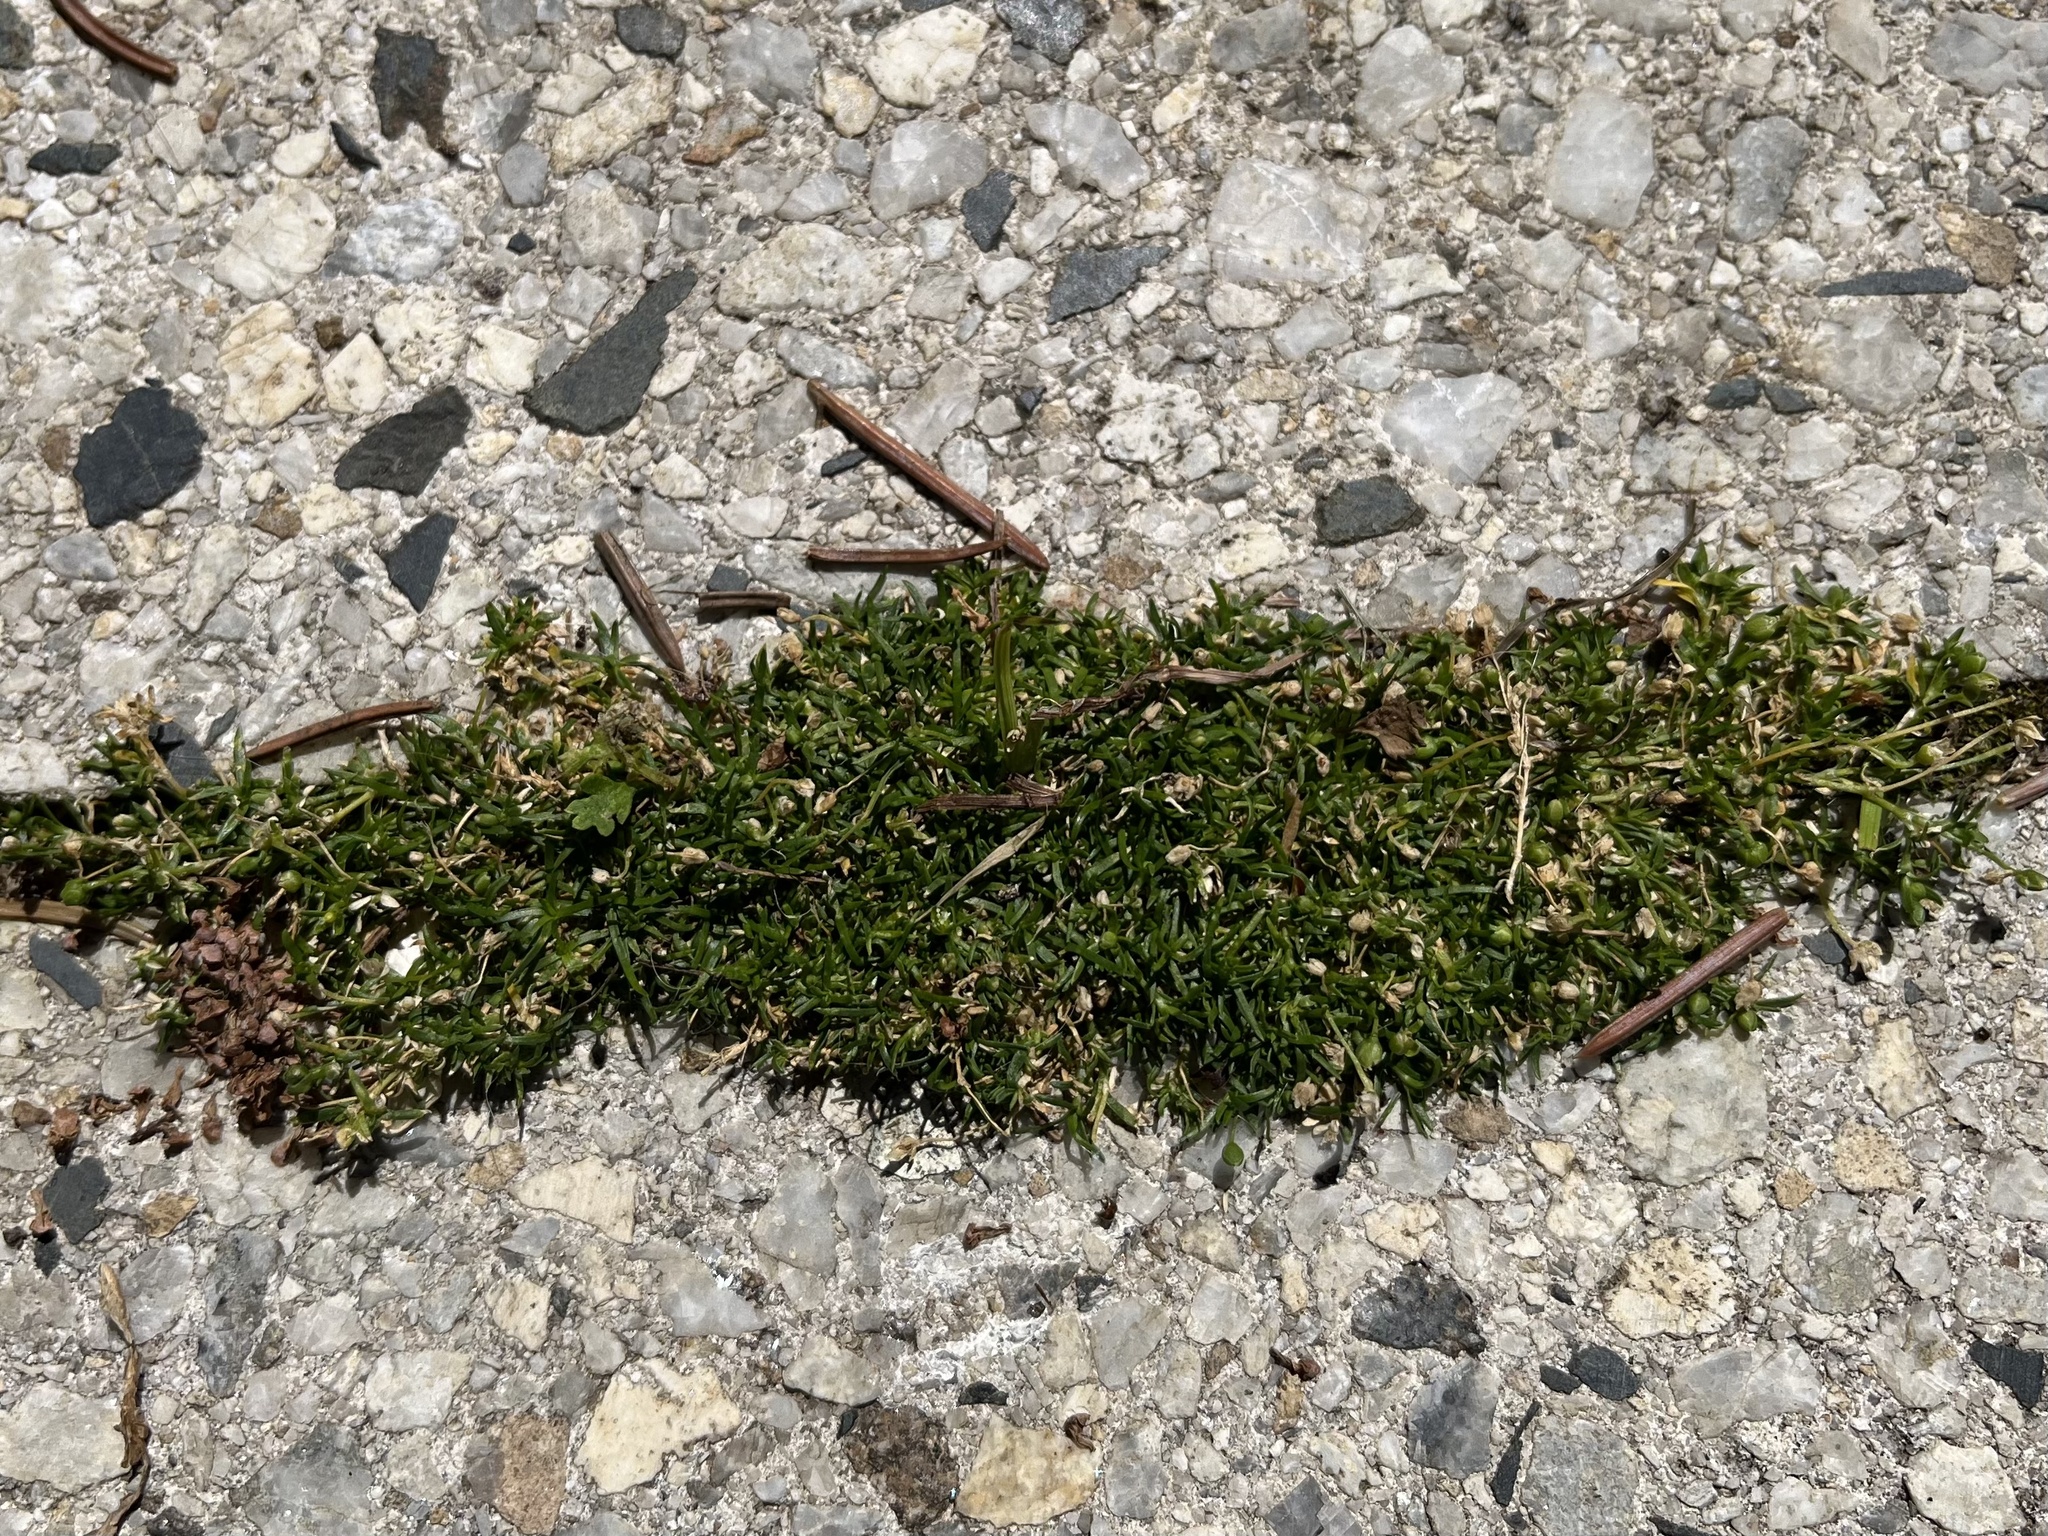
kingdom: Plantae
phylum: Tracheophyta
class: Magnoliopsida
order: Caryophyllales
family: Caryophyllaceae
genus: Sagina
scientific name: Sagina procumbens
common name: Procumbent pearlwort
